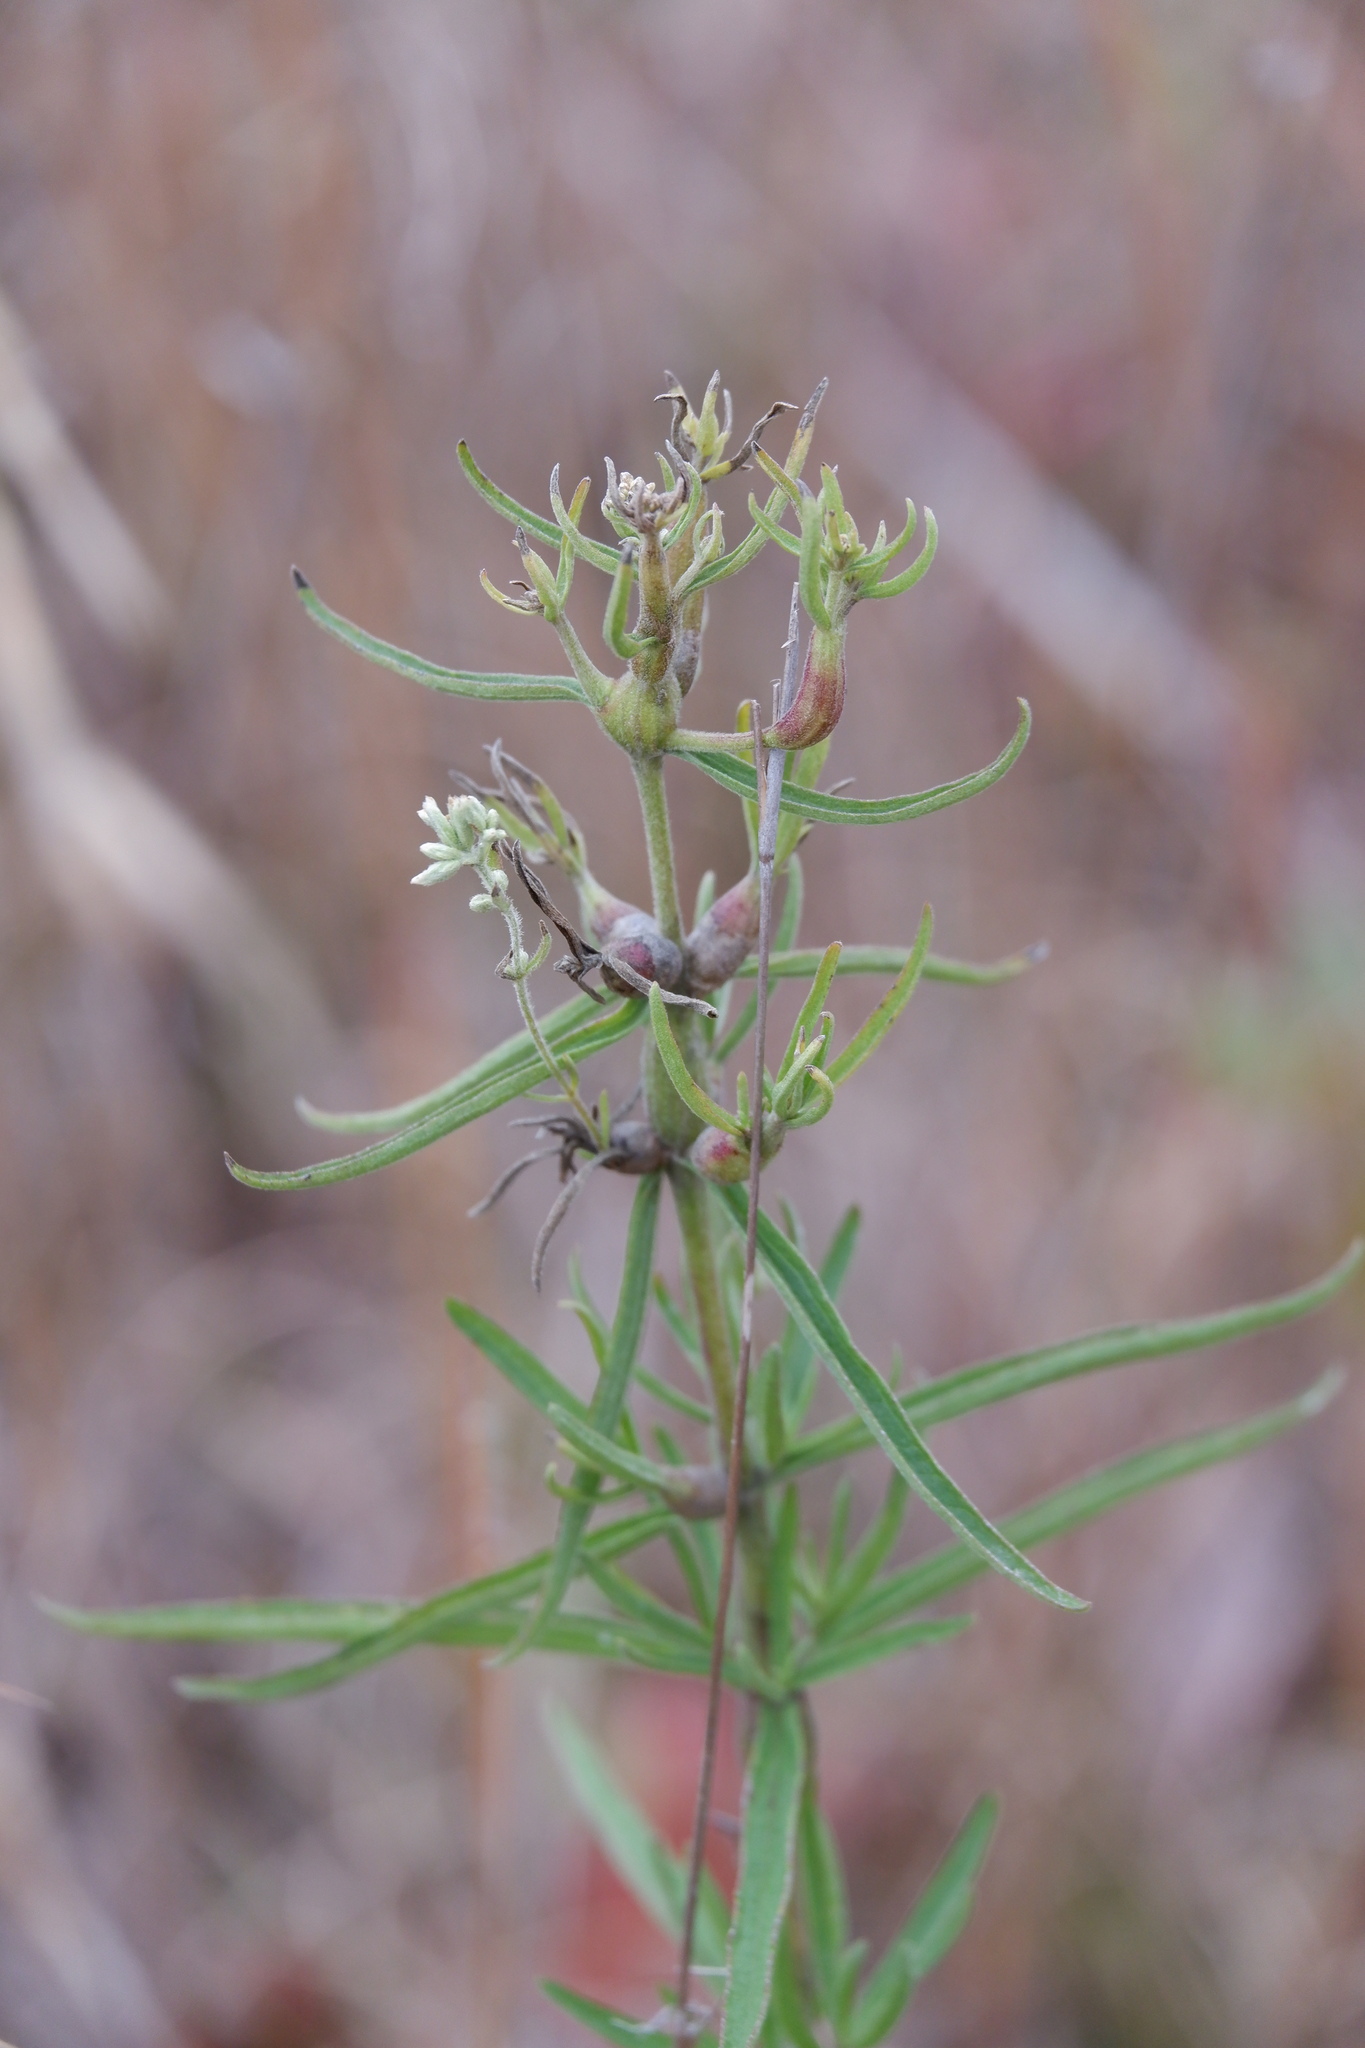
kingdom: Animalia
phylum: Arthropoda
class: Insecta
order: Diptera
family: Cecidomyiidae
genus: Neolasioptera
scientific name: Neolasioptera perfoliata
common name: Boneset stem midge
